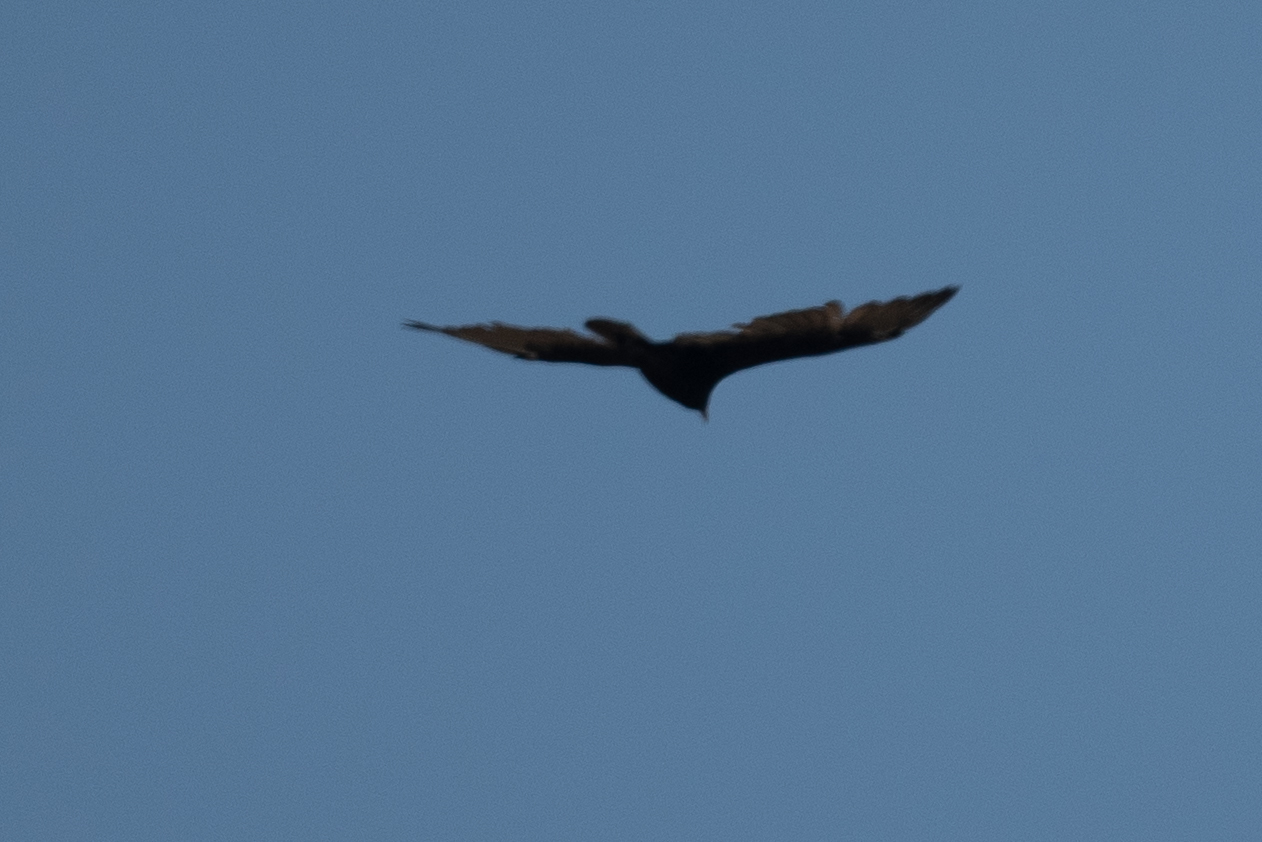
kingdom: Animalia
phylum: Chordata
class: Aves
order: Accipitriformes
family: Cathartidae
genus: Cathartes
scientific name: Cathartes aura
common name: Turkey vulture
